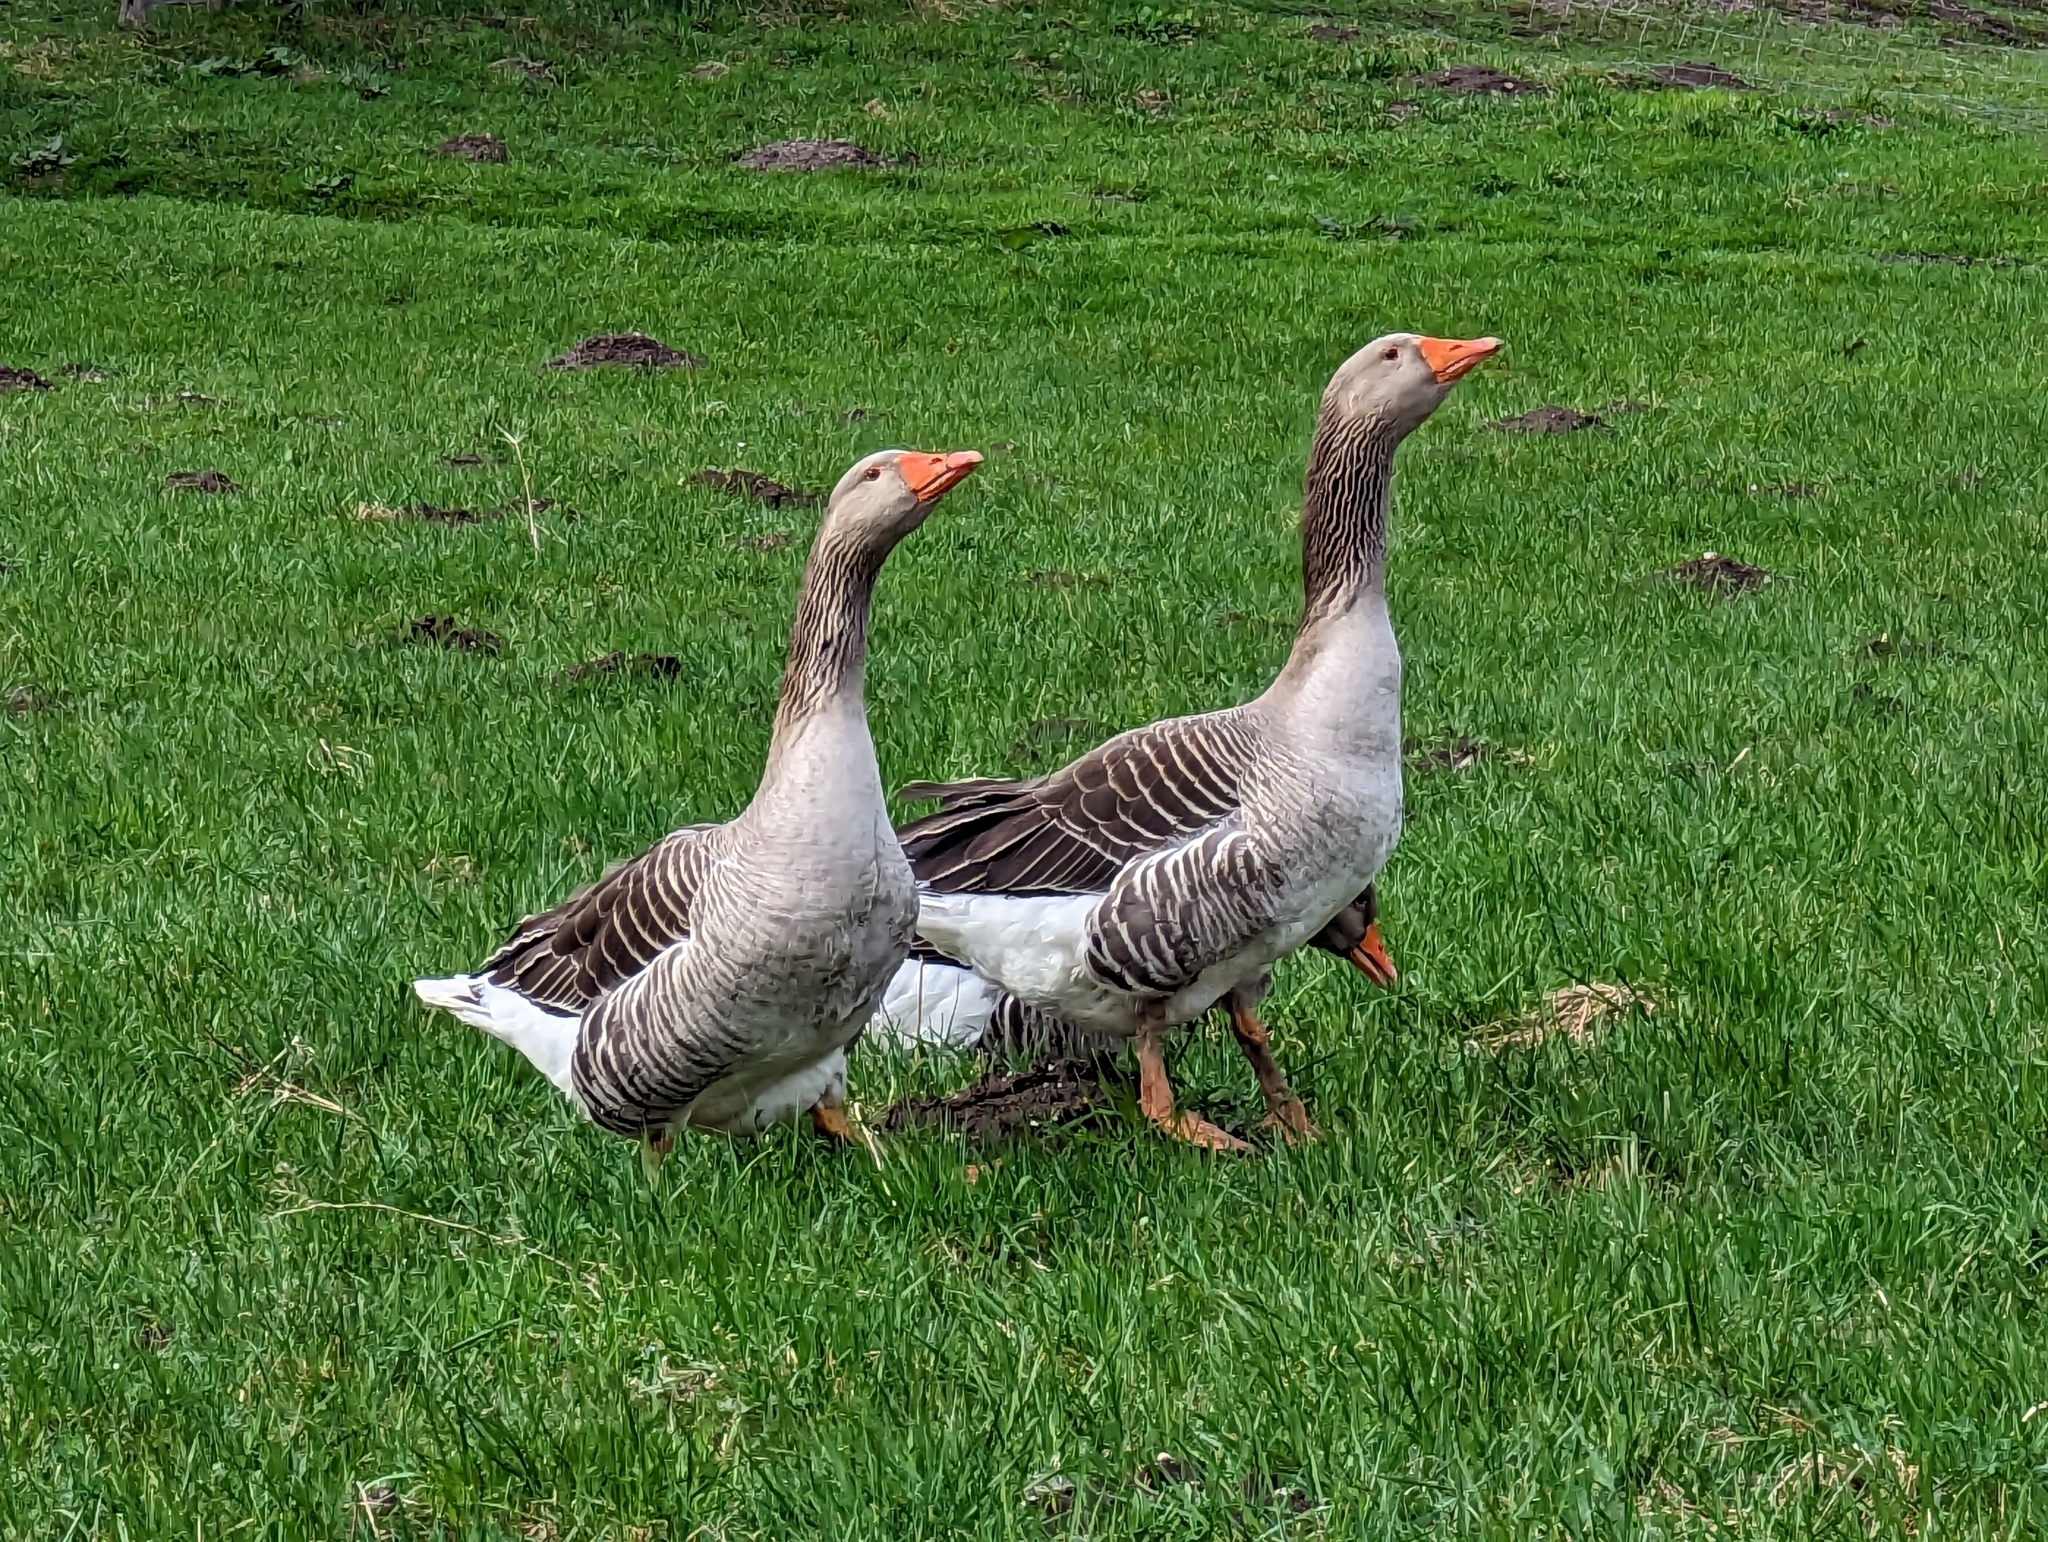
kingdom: Animalia
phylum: Chordata
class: Aves
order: Anseriformes
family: Anatidae
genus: Anser
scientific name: Anser anser
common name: Greylag goose
